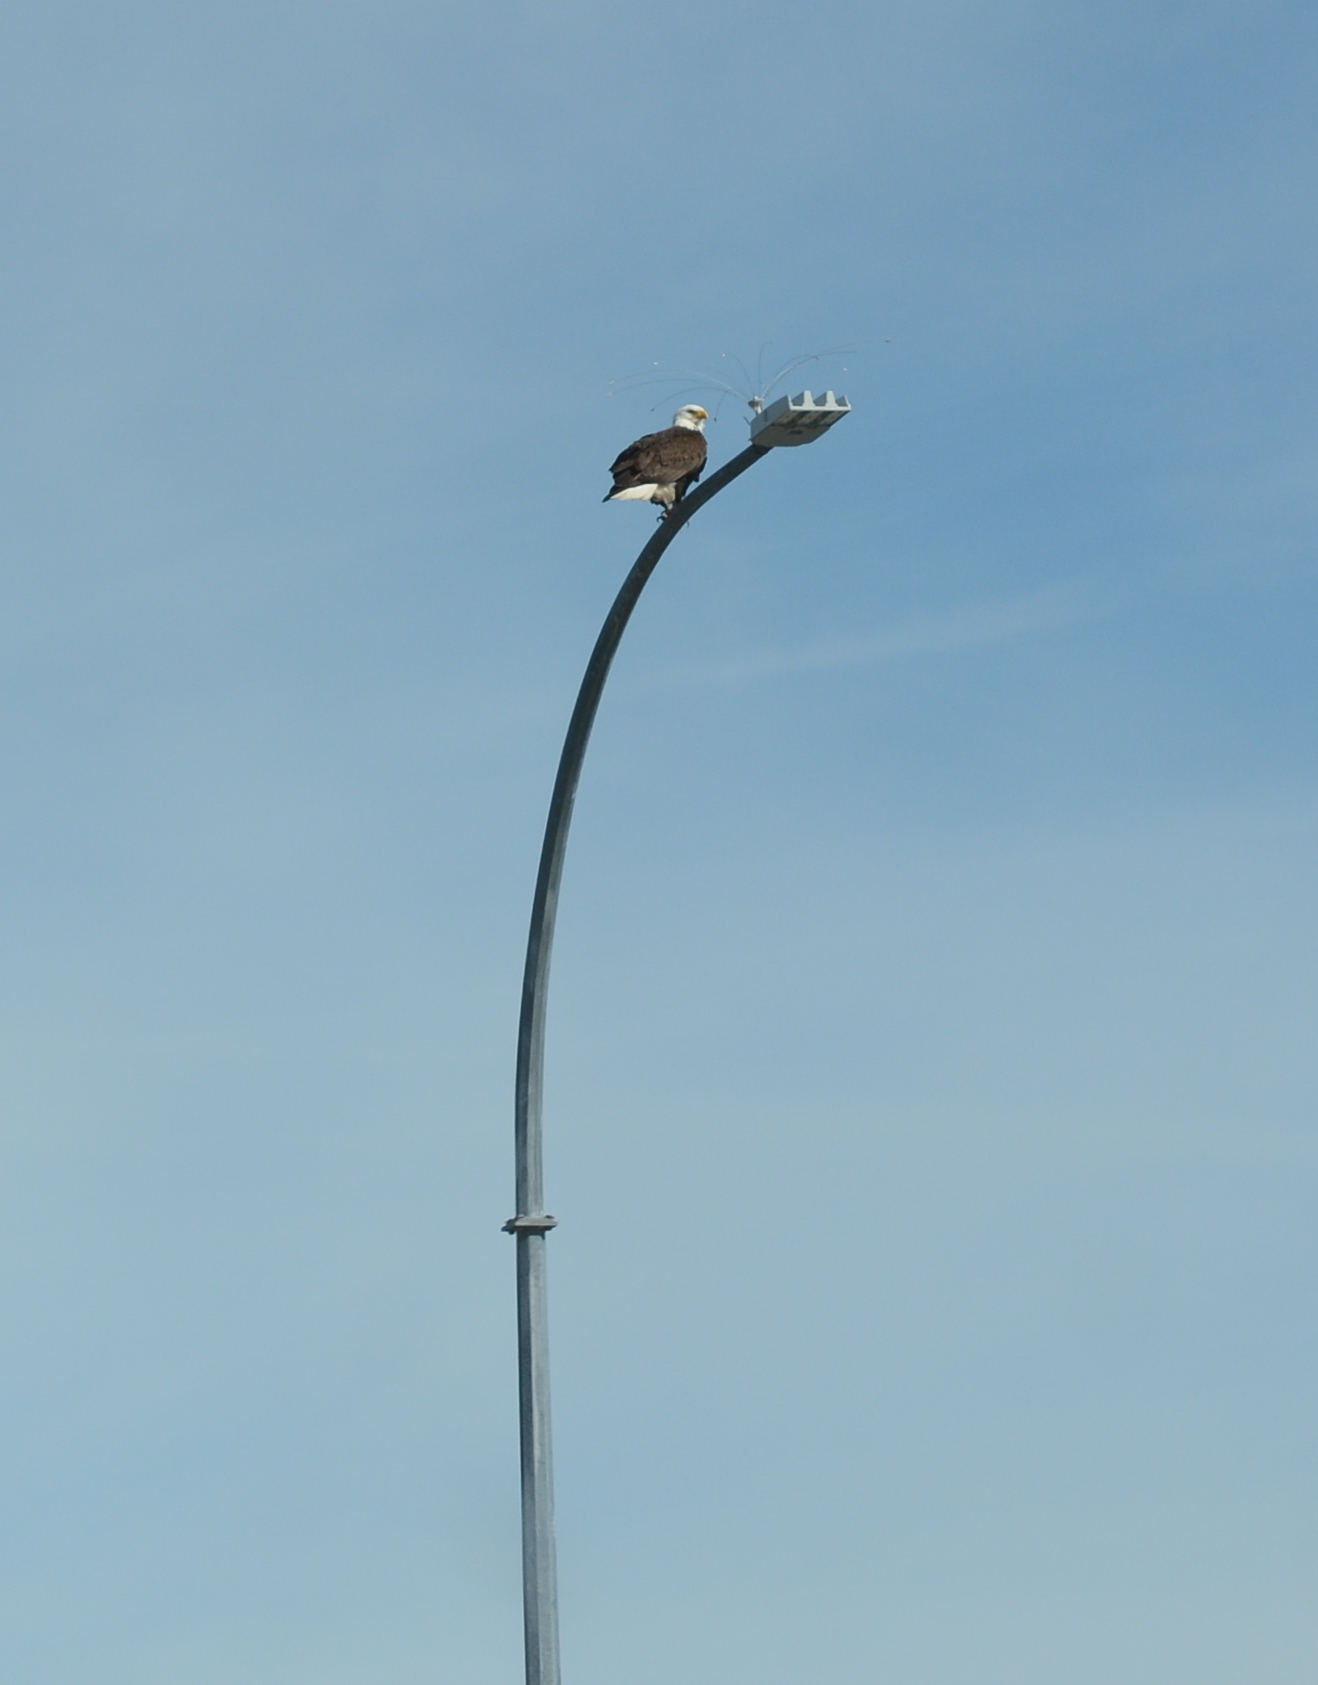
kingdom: Animalia
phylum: Chordata
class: Aves
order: Accipitriformes
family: Accipitridae
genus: Haliaeetus
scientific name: Haliaeetus leucocephalus
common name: Bald eagle
